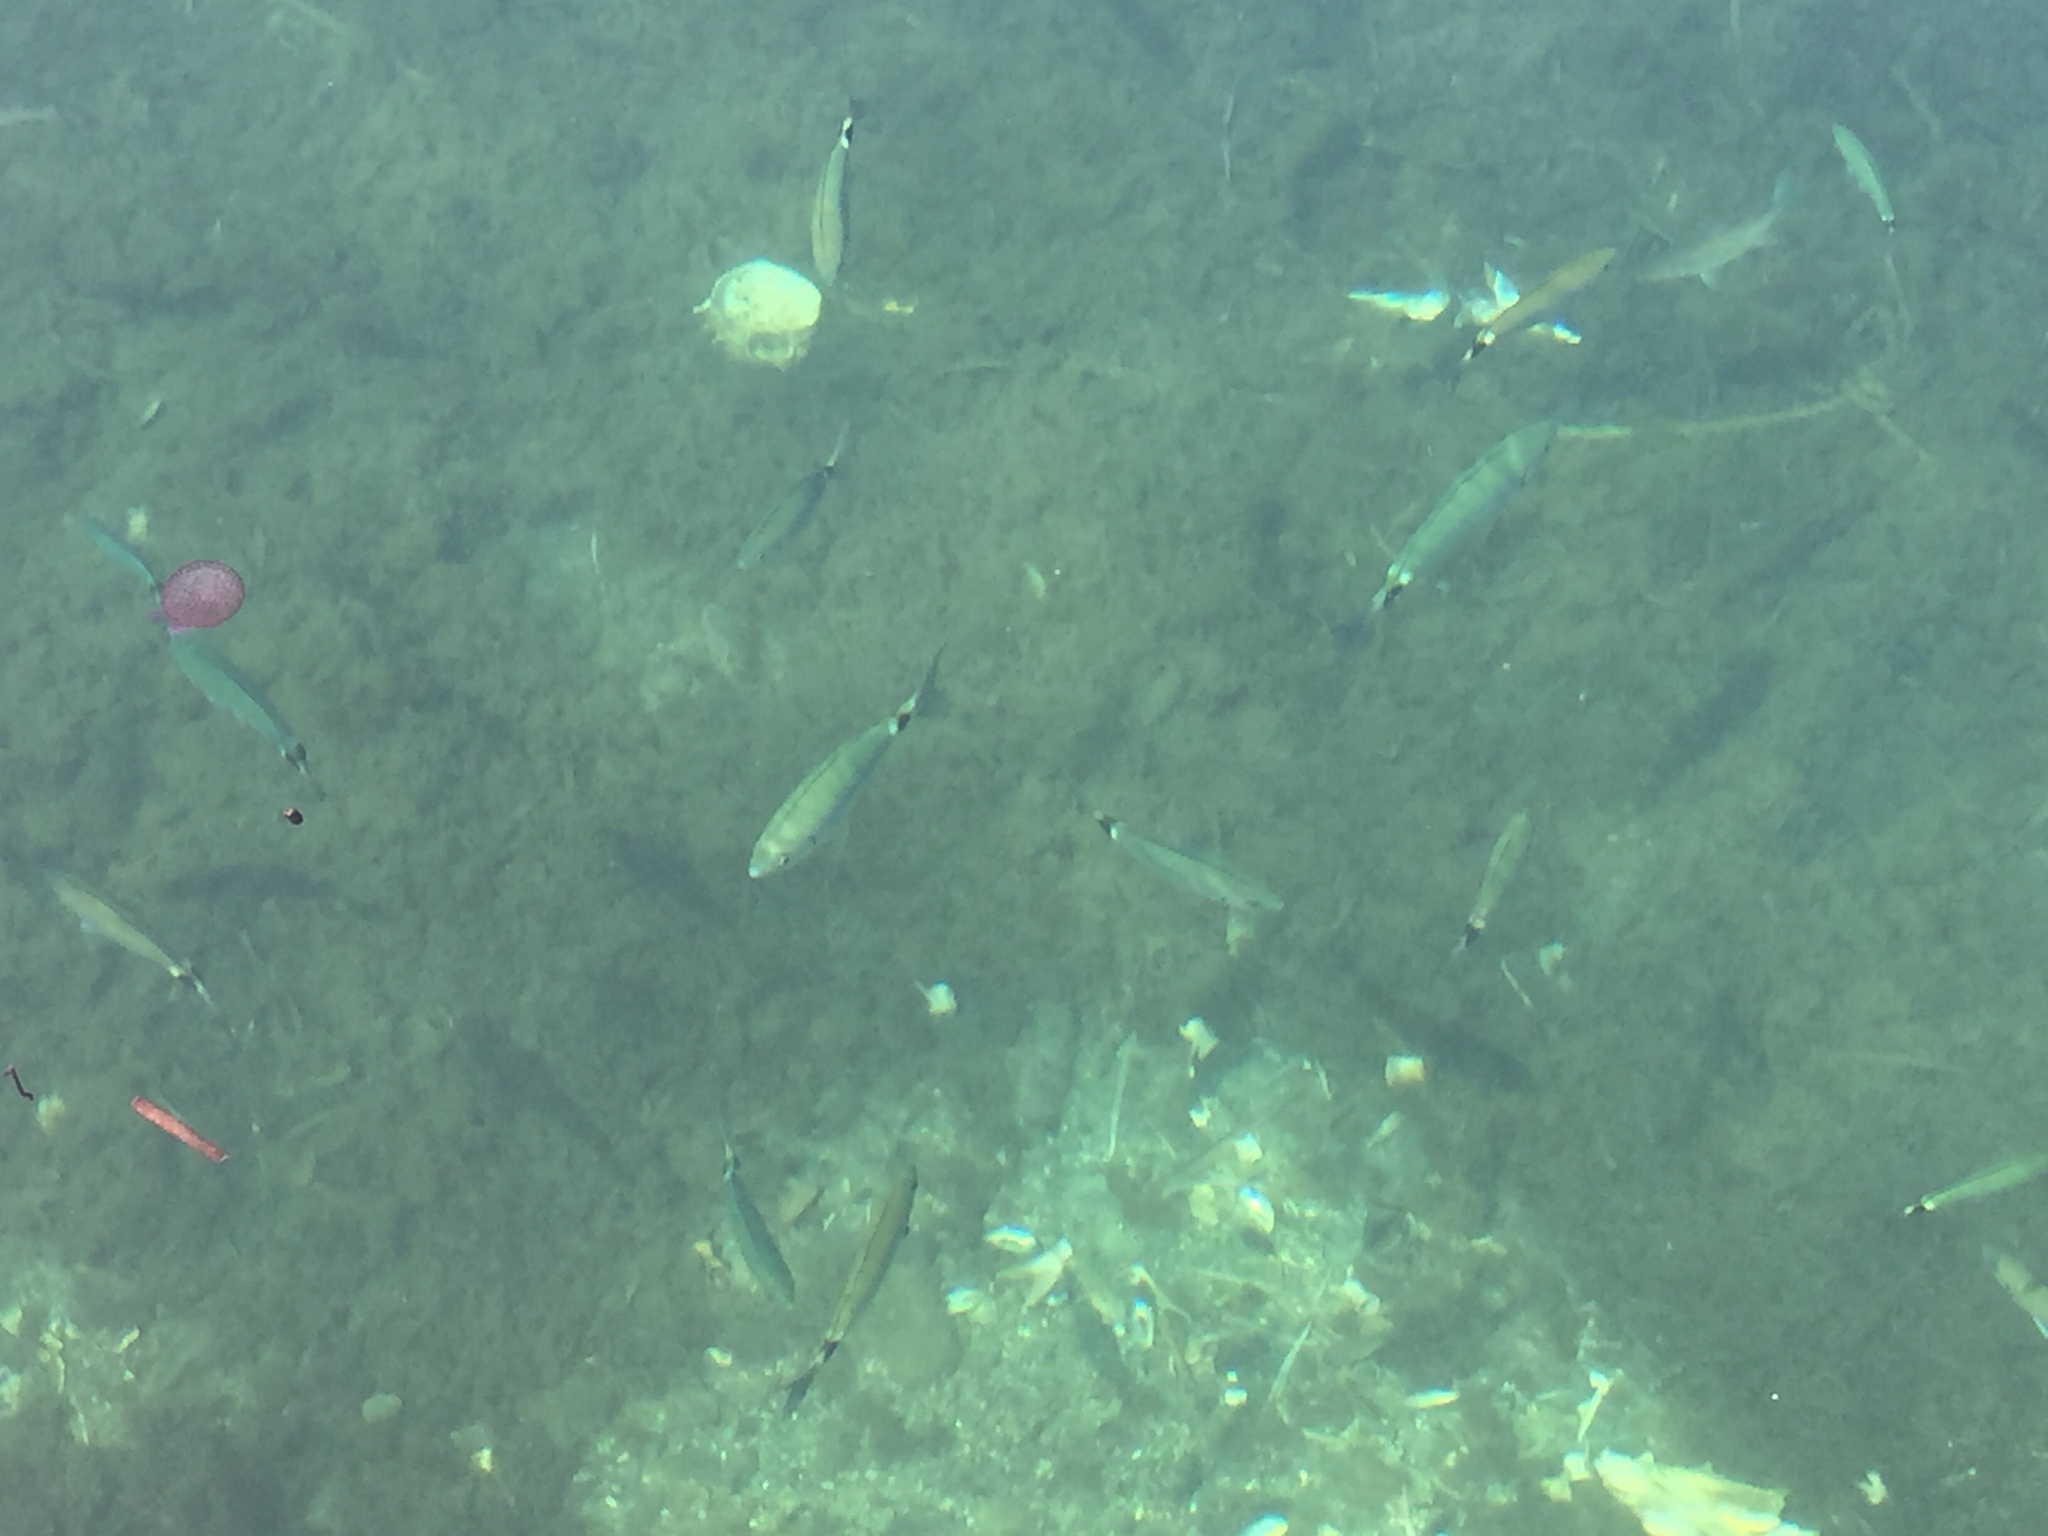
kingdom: Animalia
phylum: Chordata
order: Perciformes
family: Sparidae
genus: Oblada
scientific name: Oblada melanura
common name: Saddled seabream
